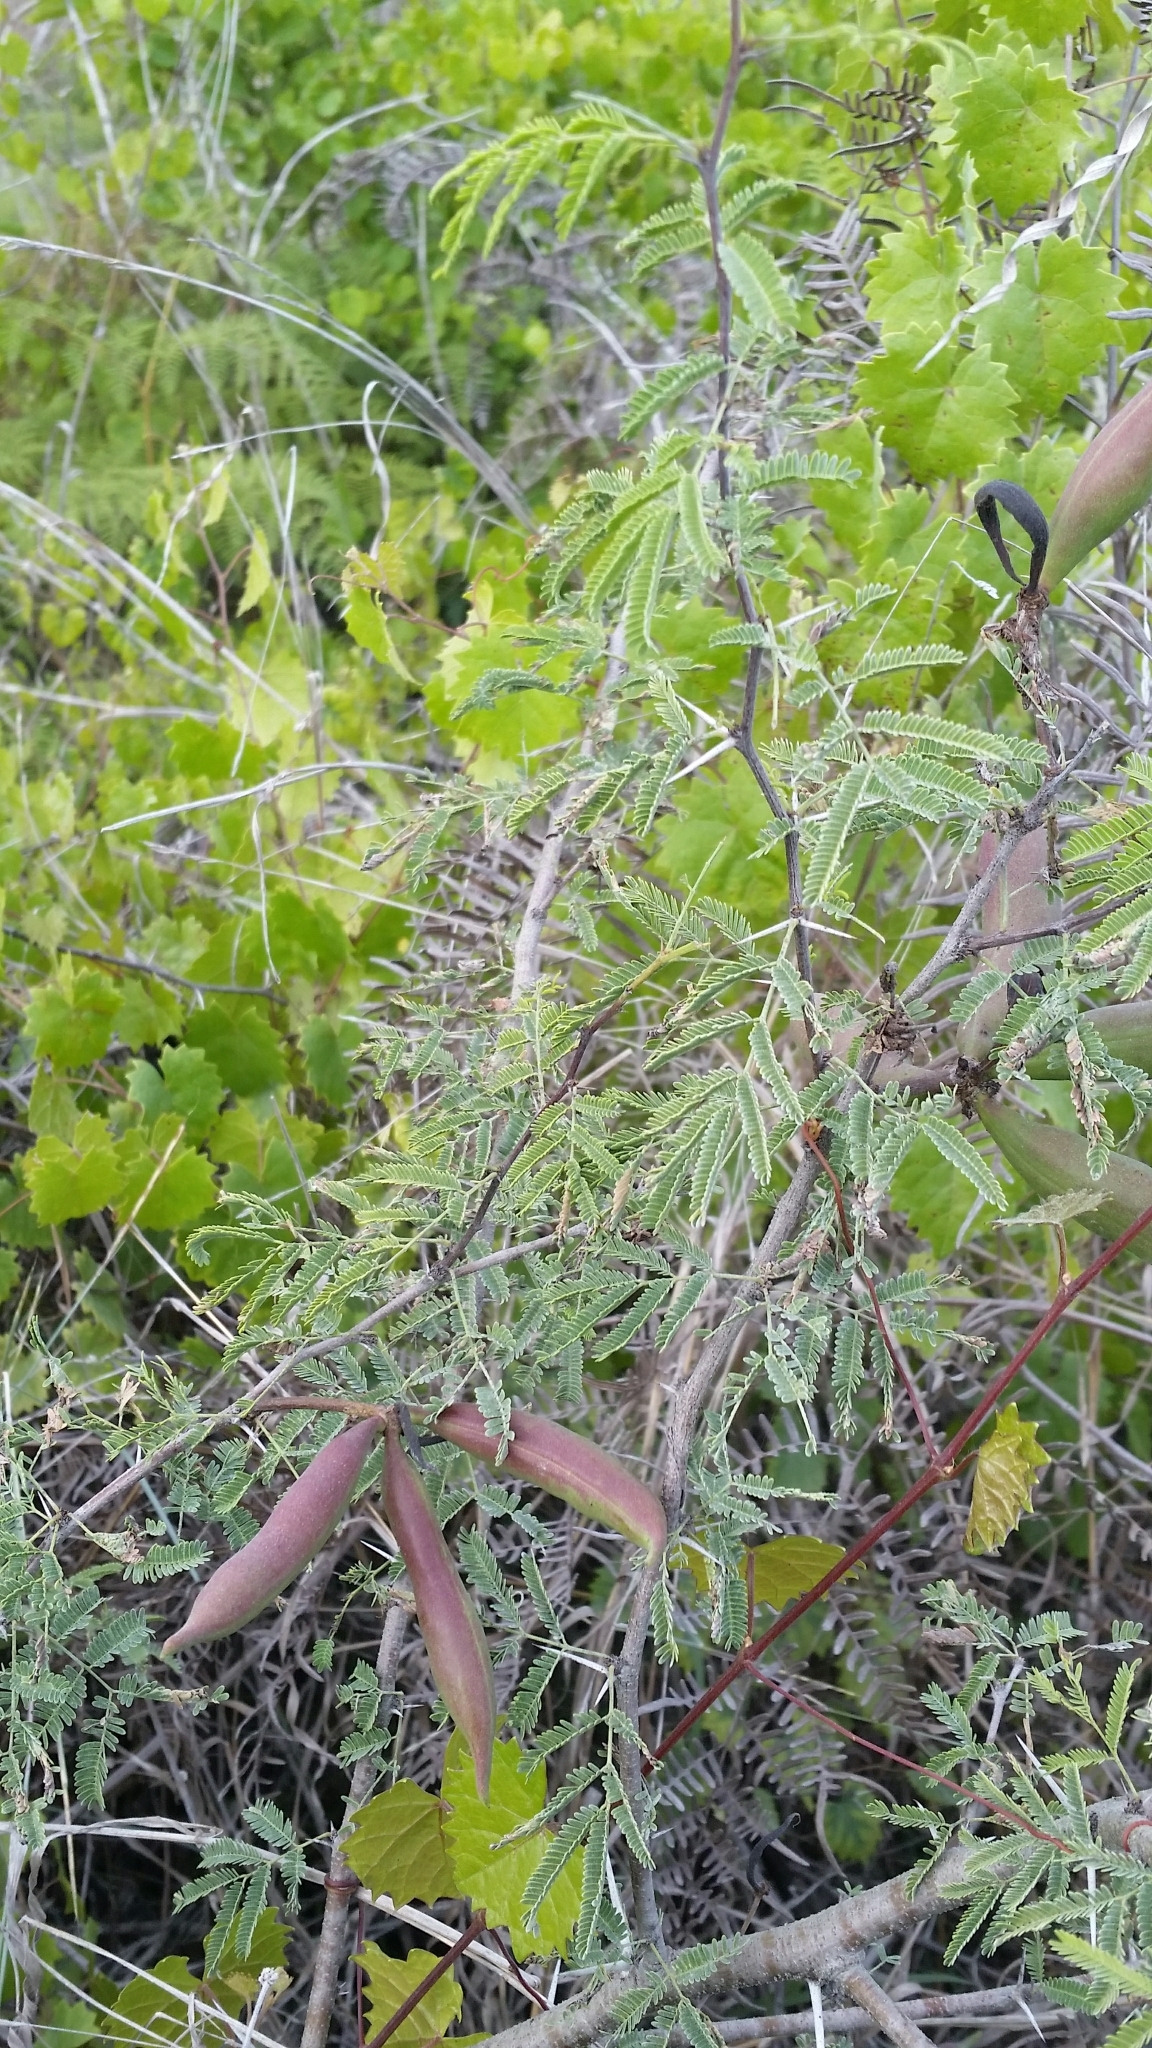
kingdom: Plantae
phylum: Tracheophyta
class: Magnoliopsida
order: Fabales
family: Fabaceae
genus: Vachellia
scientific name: Vachellia farnesiana
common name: Sweet acacia
